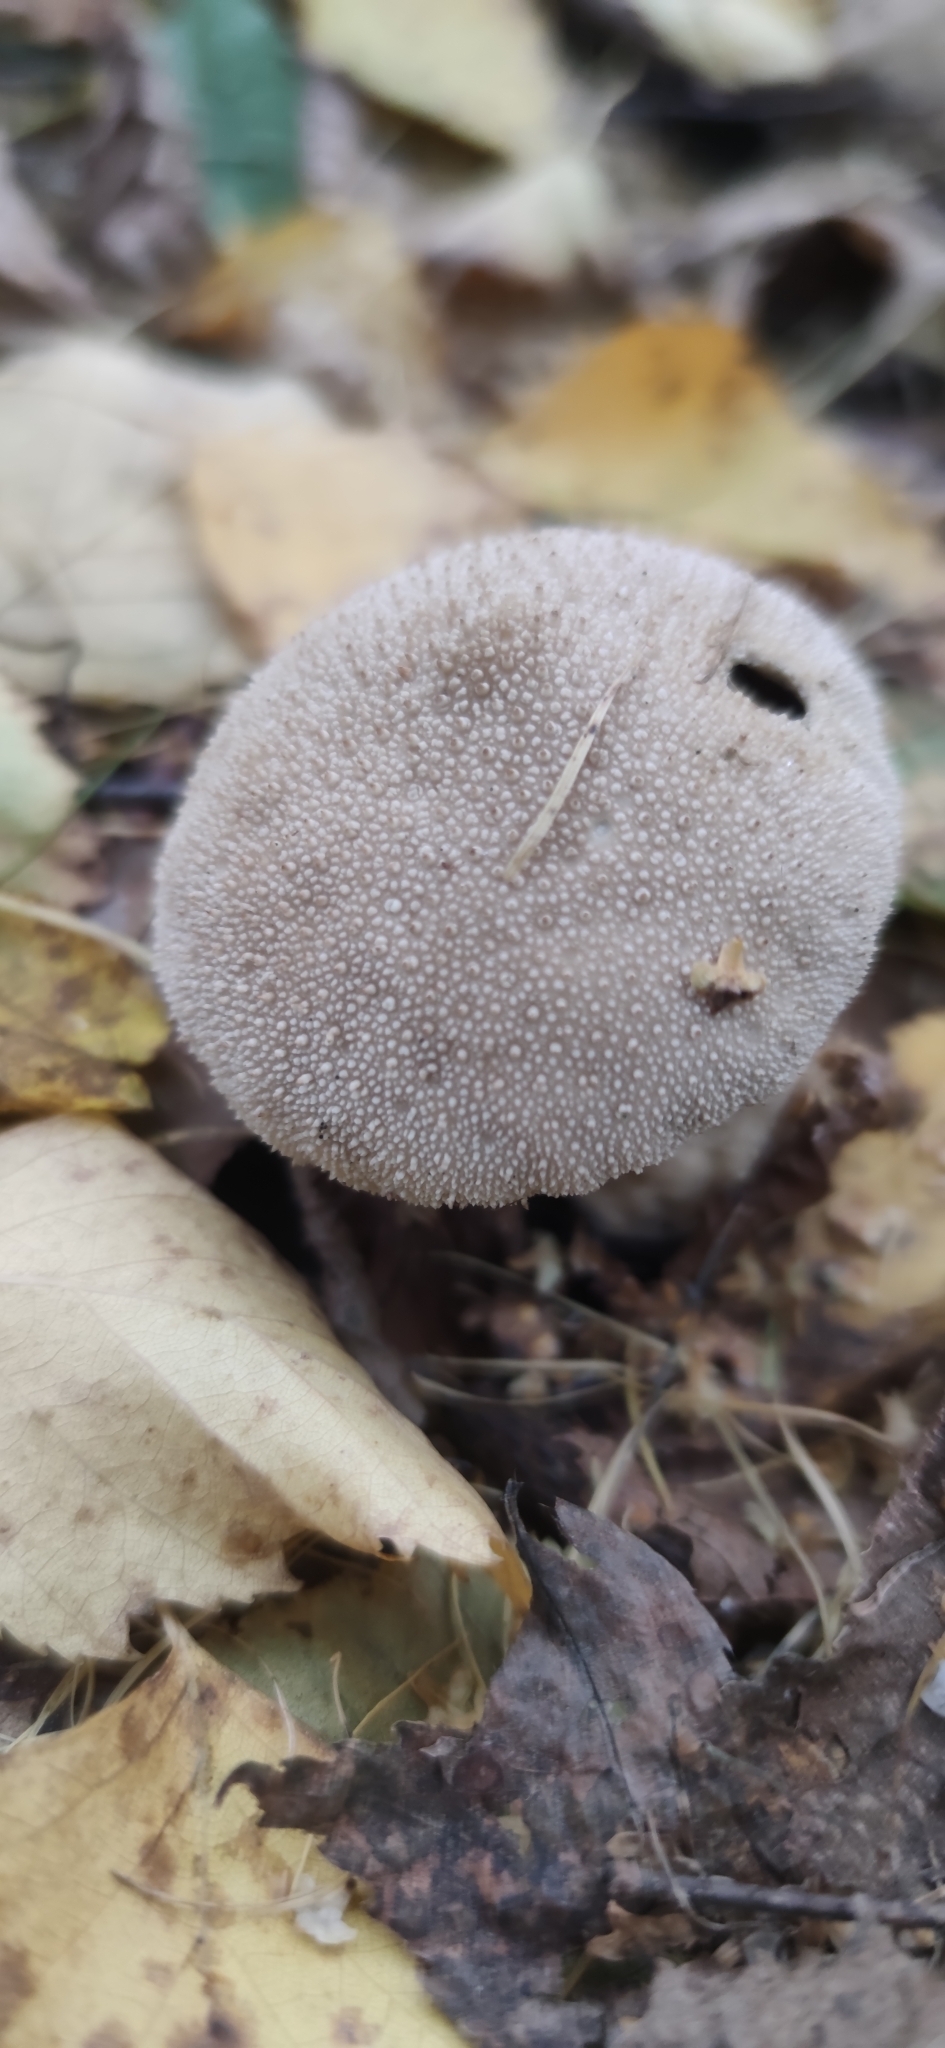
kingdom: Fungi
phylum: Basidiomycota
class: Agaricomycetes
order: Agaricales
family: Lycoperdaceae
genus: Lycoperdon
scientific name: Lycoperdon perlatum
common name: Common puffball
